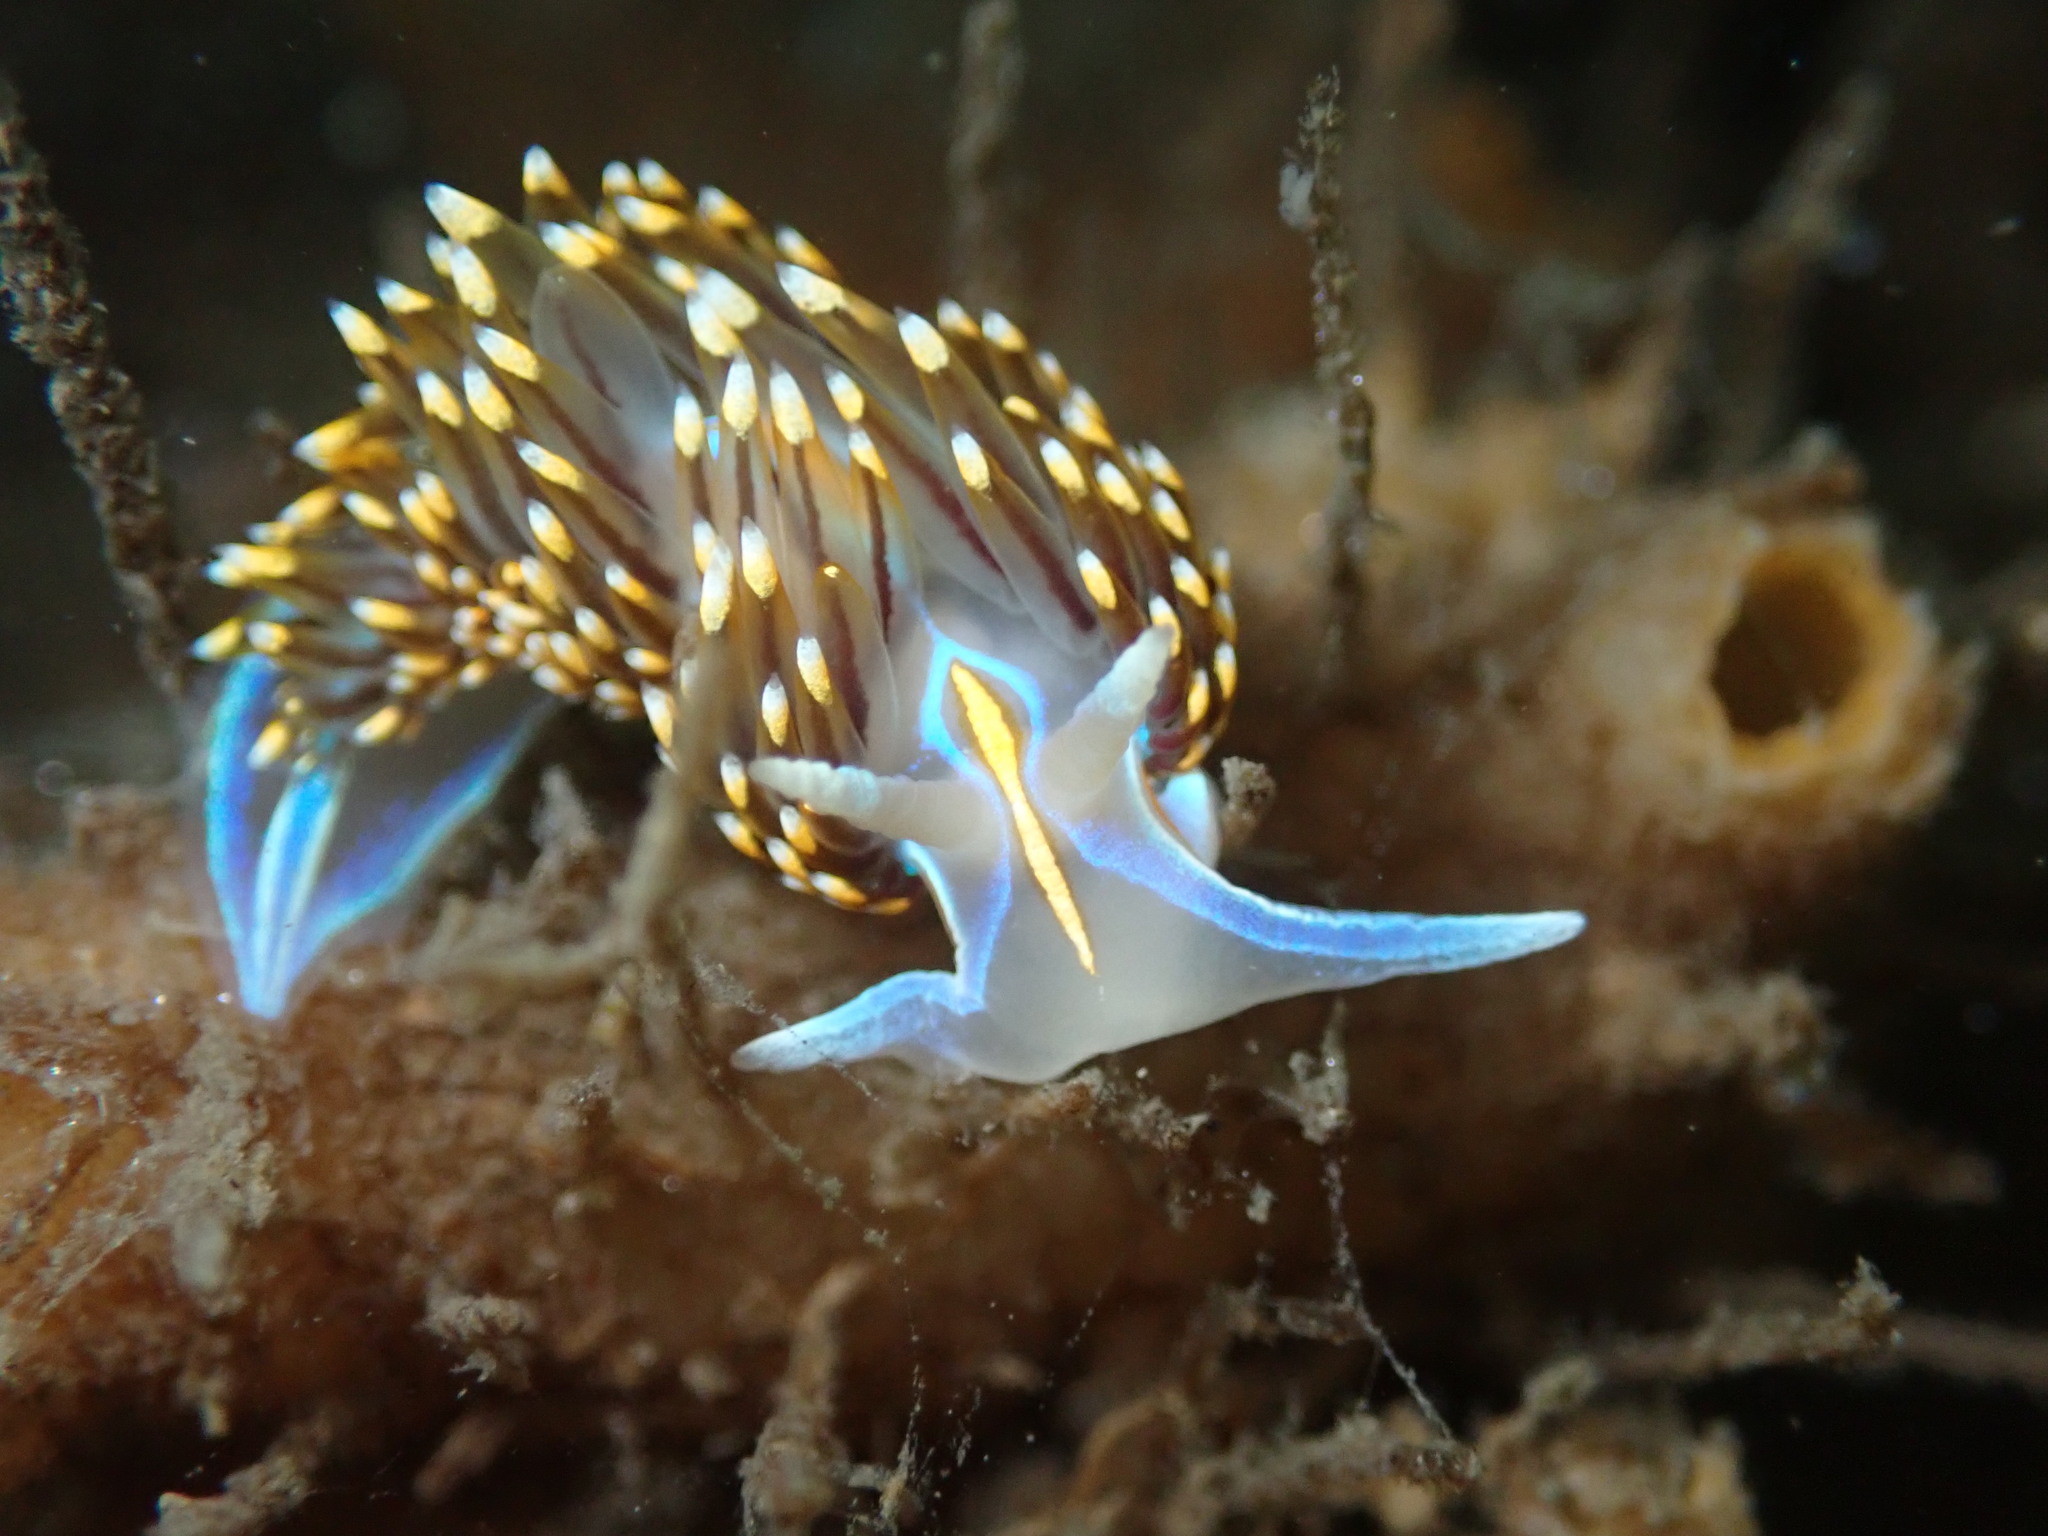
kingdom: Animalia
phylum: Mollusca
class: Gastropoda
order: Nudibranchia
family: Myrrhinidae
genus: Hermissenda
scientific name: Hermissenda opalescens
